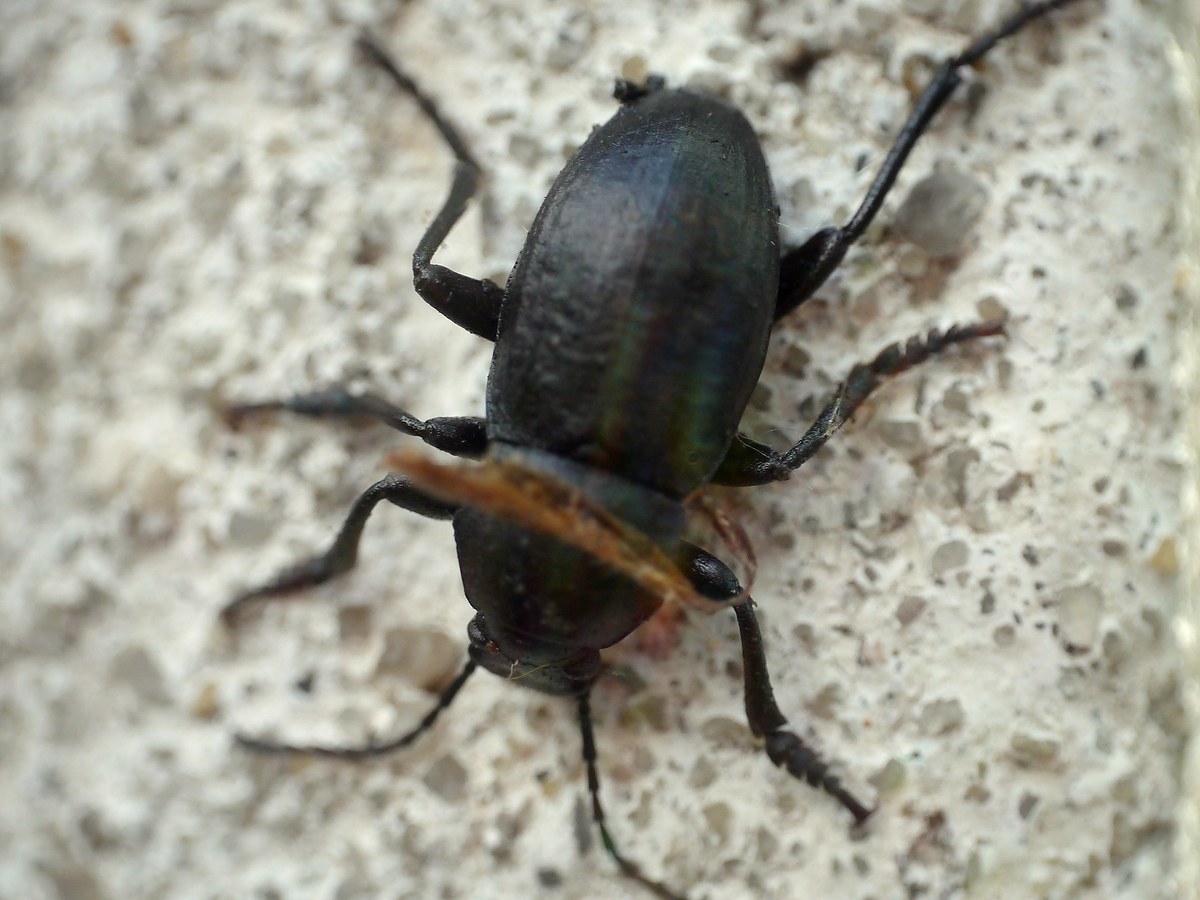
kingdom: Animalia
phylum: Arthropoda
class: Insecta
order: Coleoptera
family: Tenebrionidae
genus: Euboeus
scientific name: Euboeus
